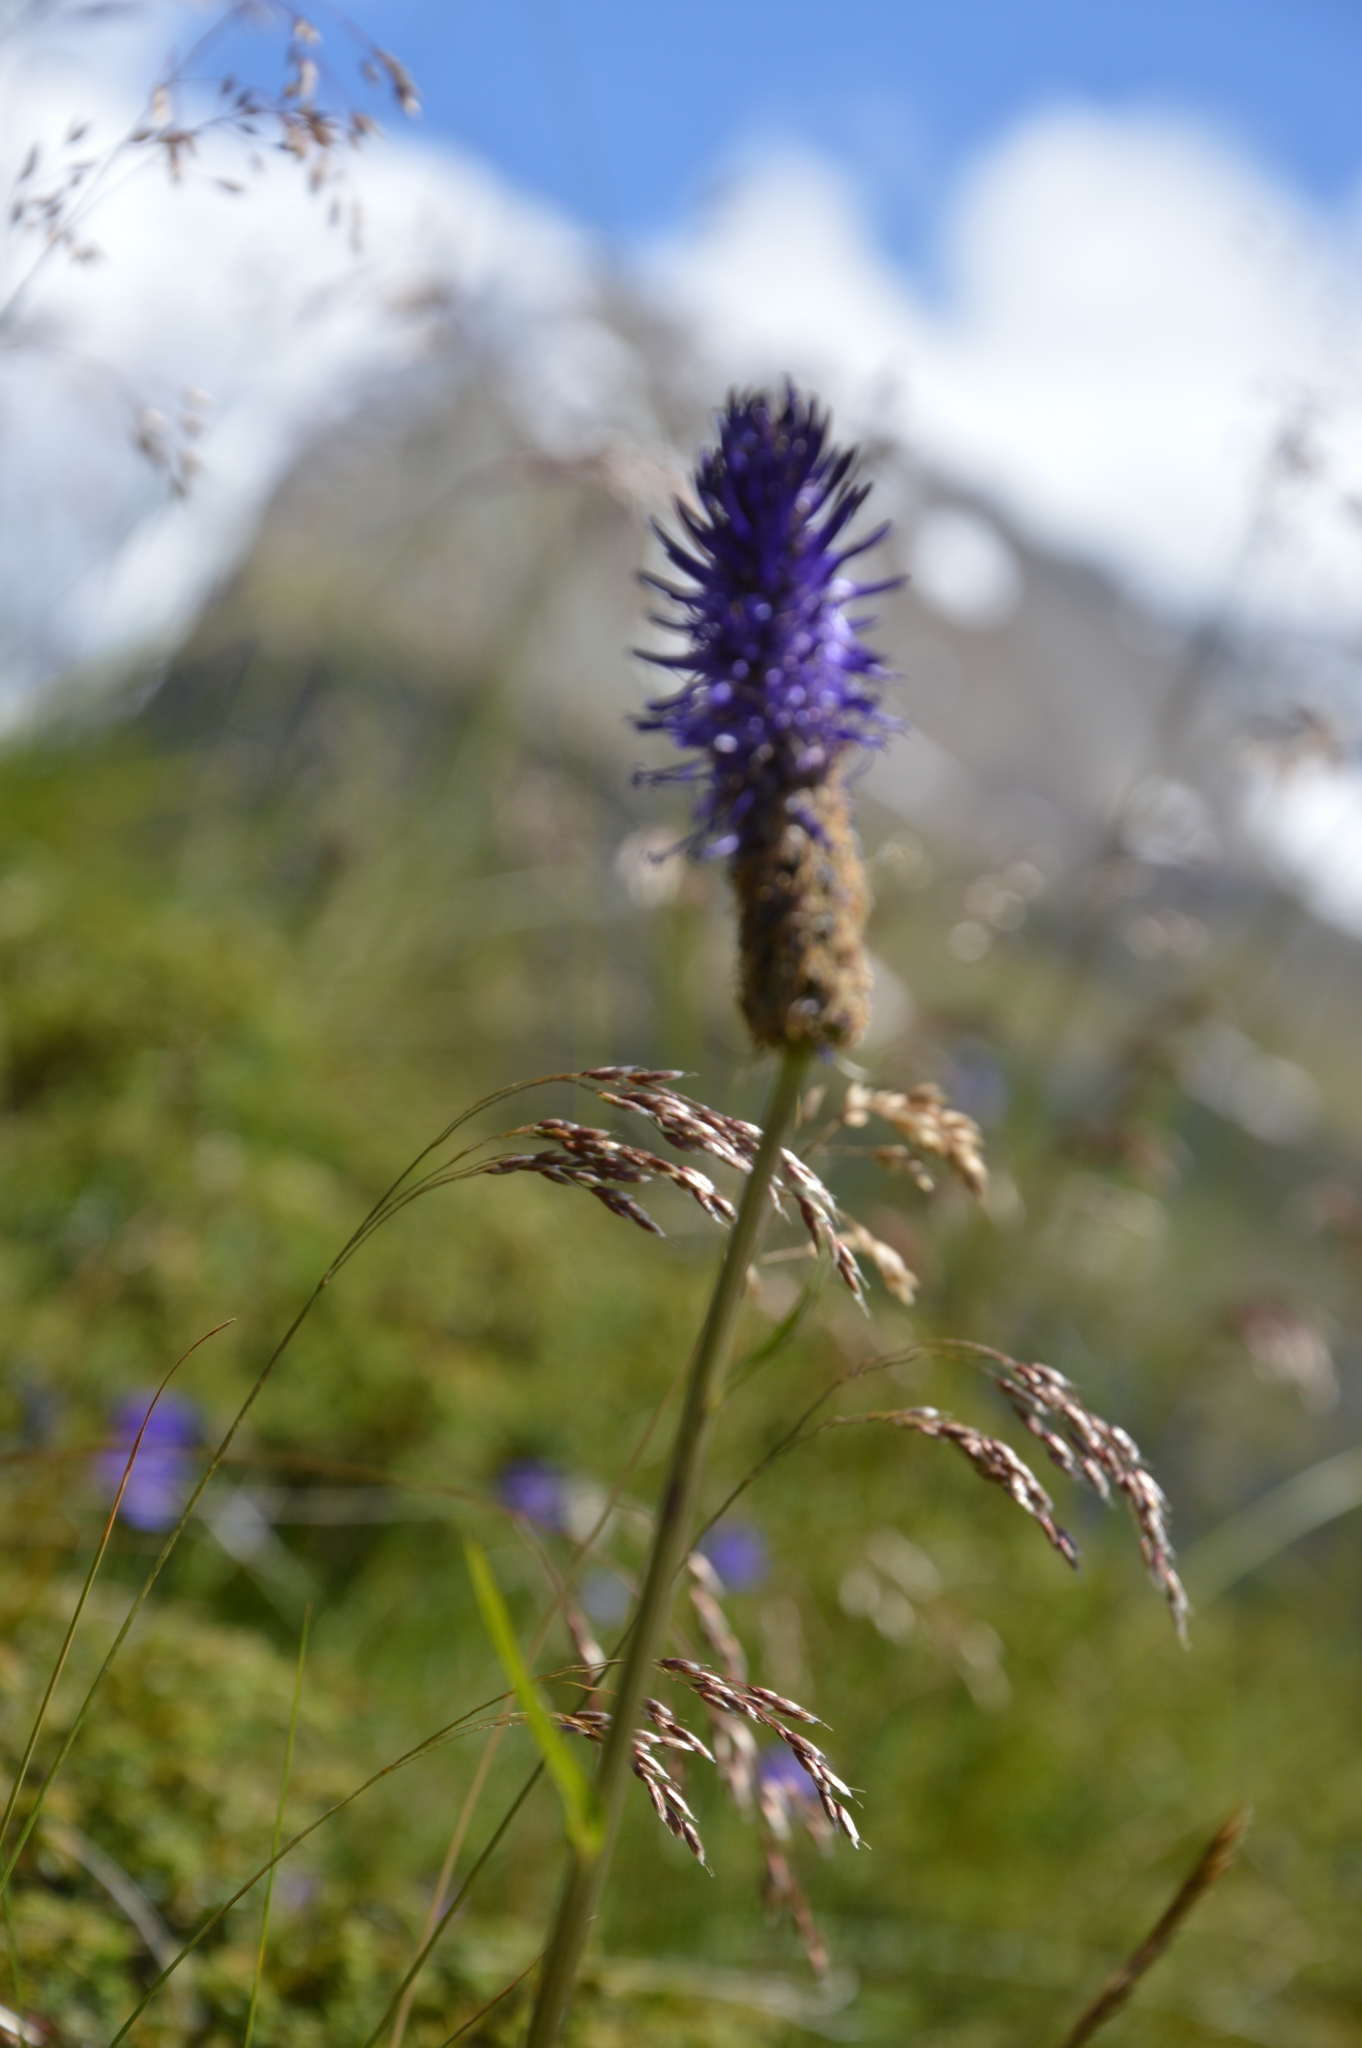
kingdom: Plantae
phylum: Tracheophyta
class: Magnoliopsida
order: Asterales
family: Campanulaceae
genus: Phyteuma
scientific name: Phyteuma betonicifolium
